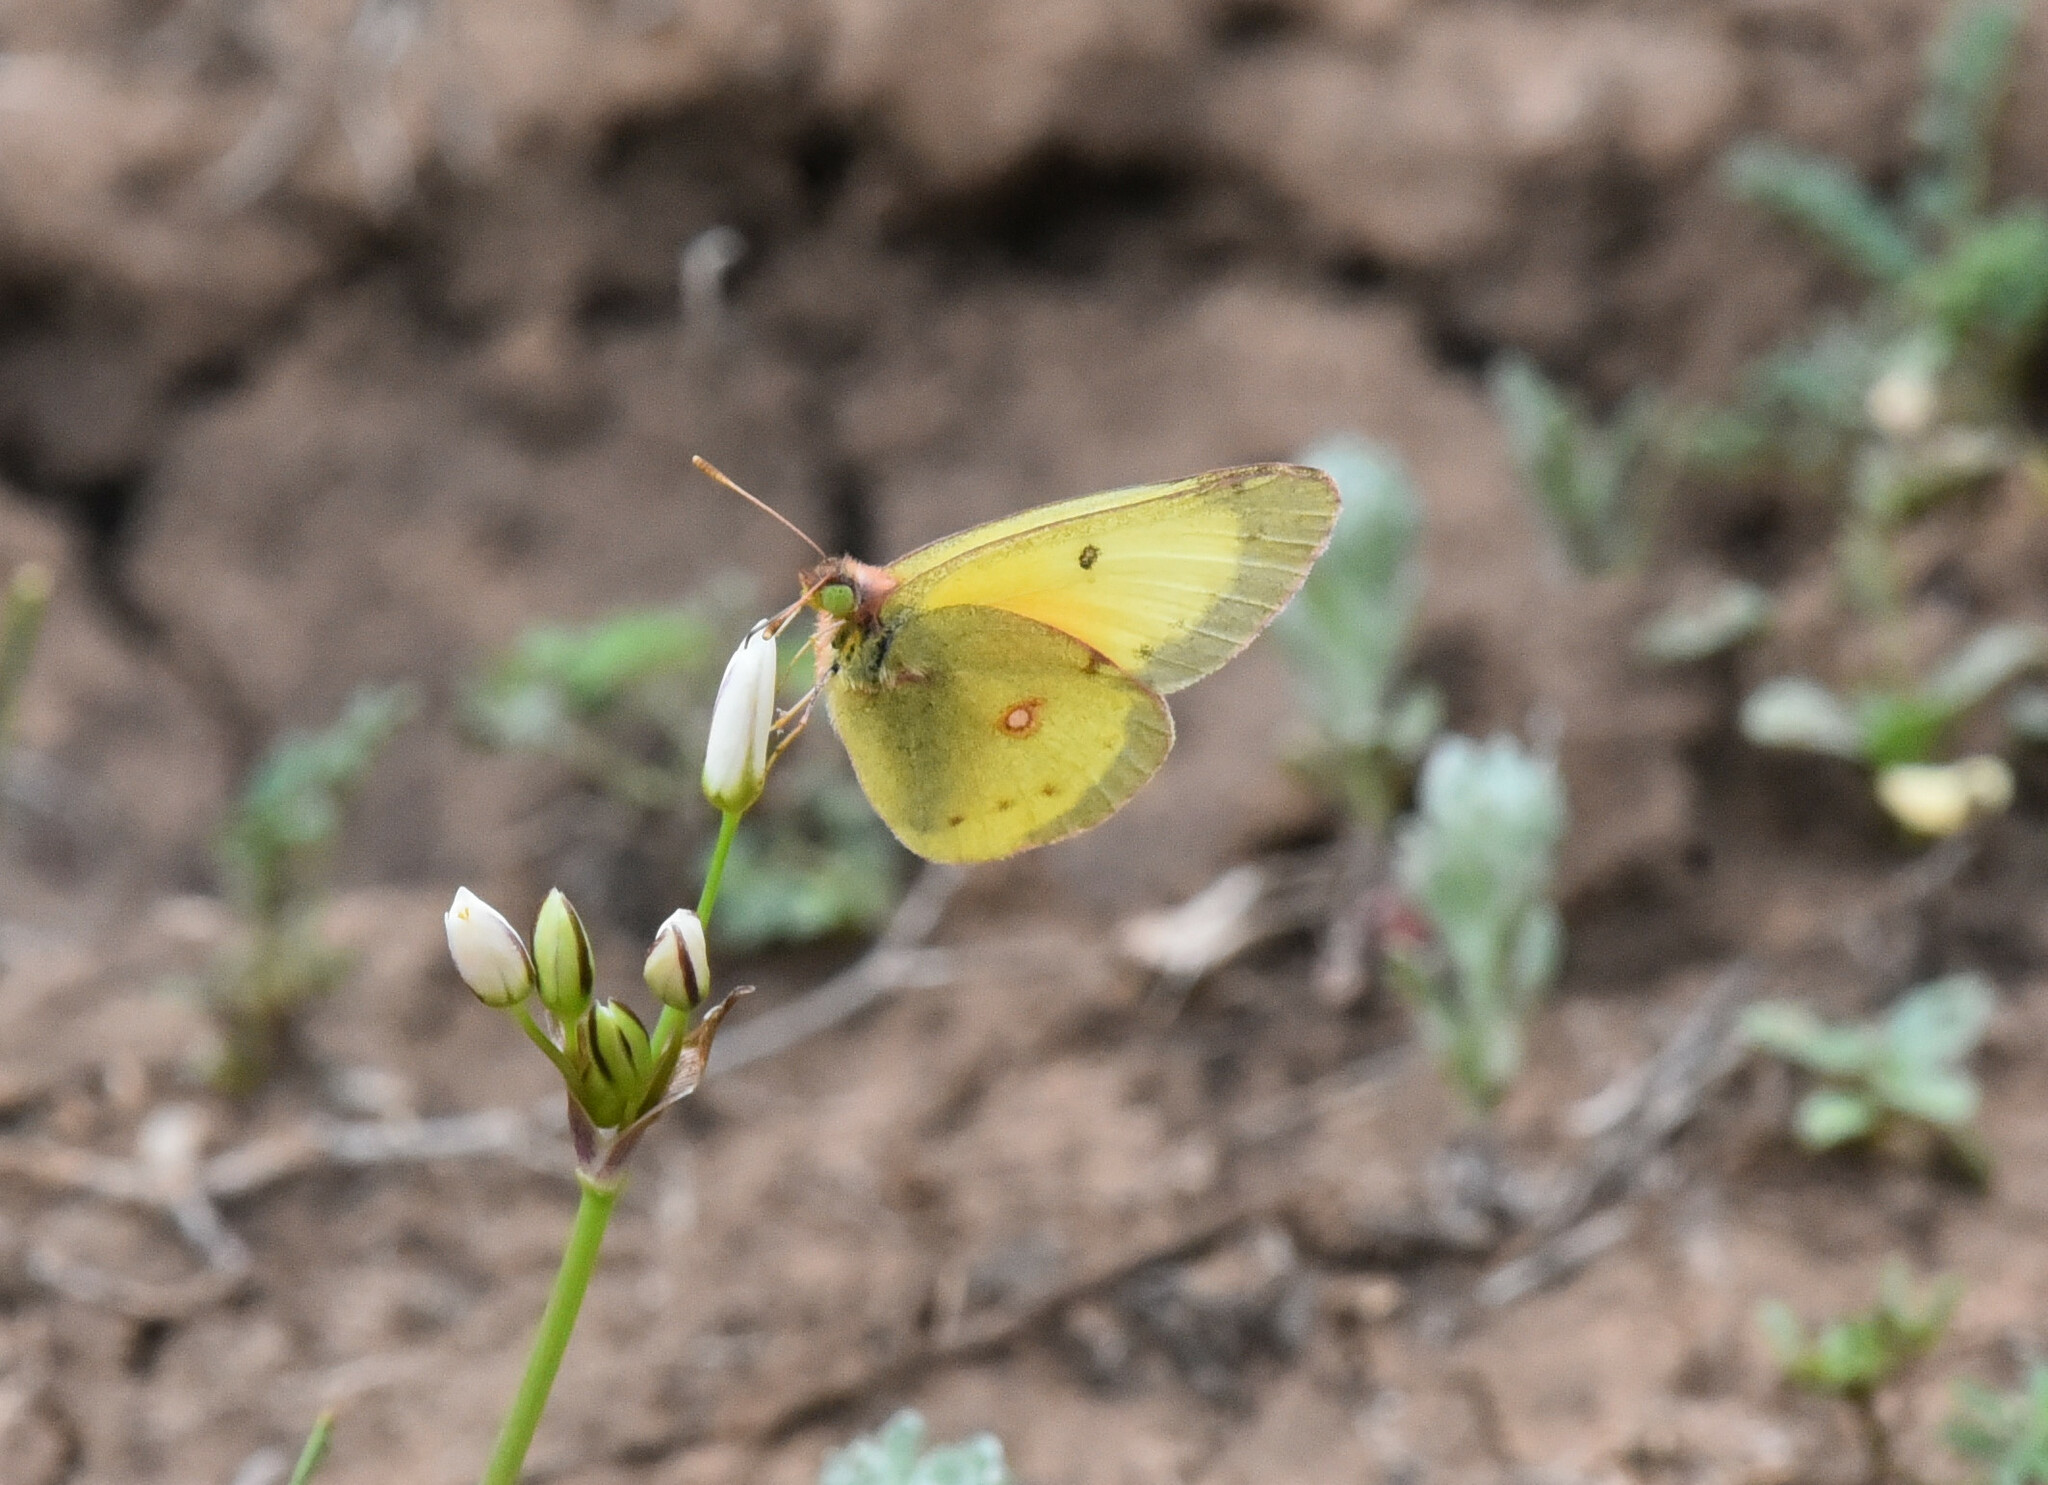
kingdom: Animalia
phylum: Arthropoda
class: Insecta
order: Lepidoptera
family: Pieridae
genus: Colias
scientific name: Colias eurytheme
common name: Alfalfa butterfly
